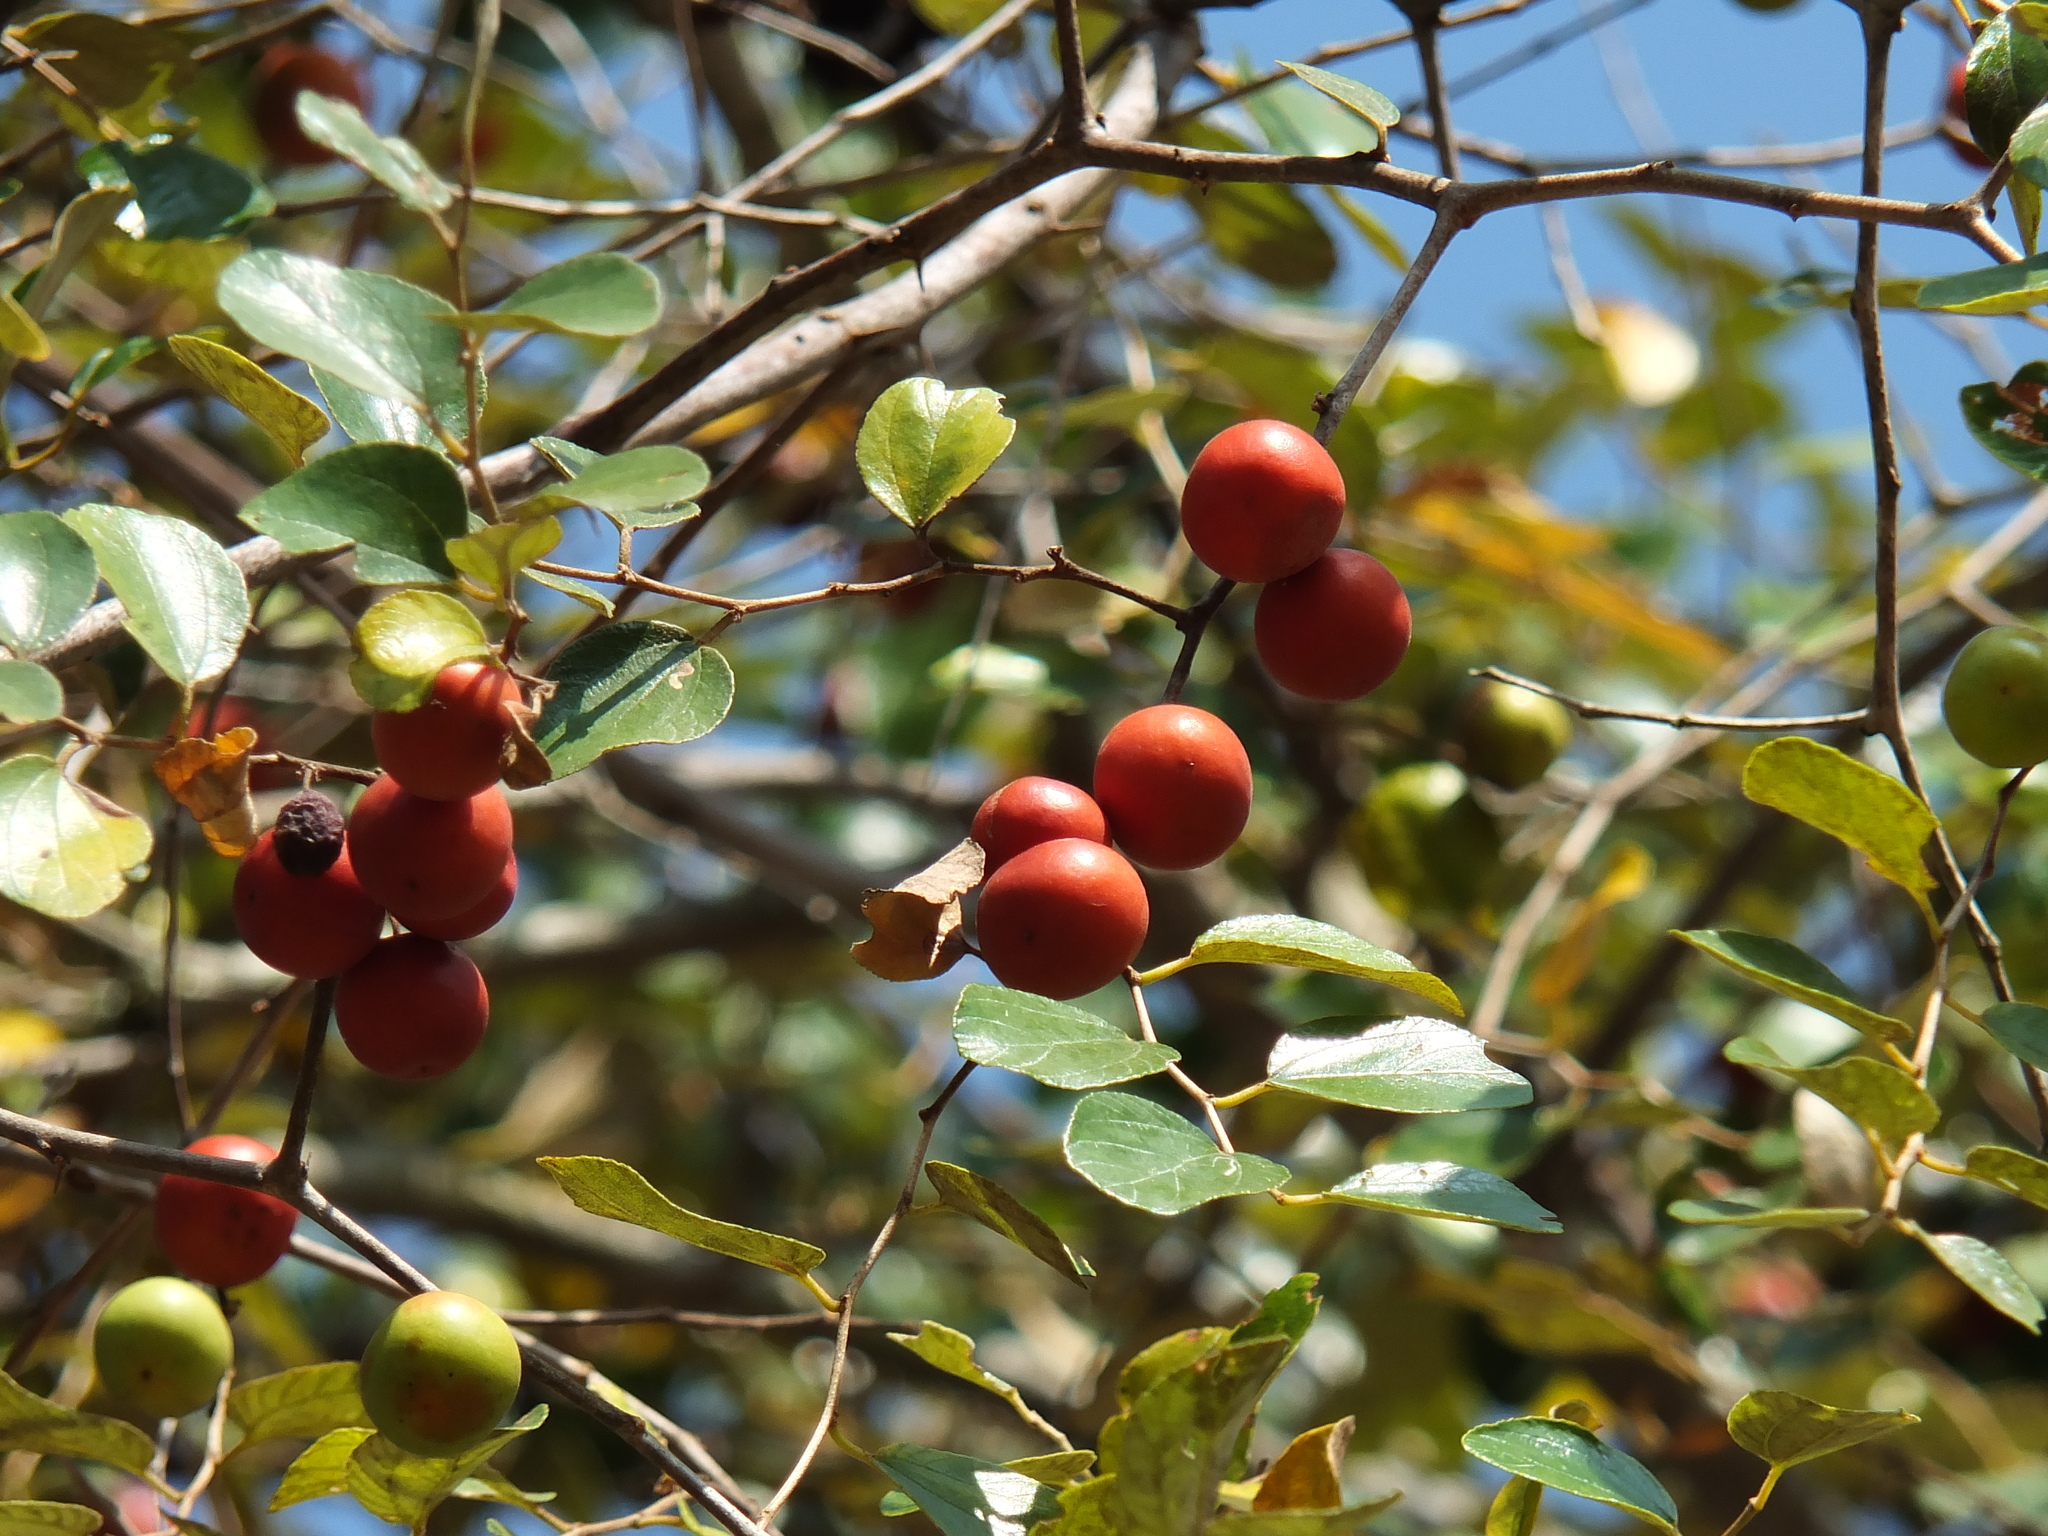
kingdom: Plantae
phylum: Tracheophyta
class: Magnoliopsida
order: Rosales
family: Rhamnaceae
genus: Ziziphus
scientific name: Ziziphus mauritiana
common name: Indian jujube
